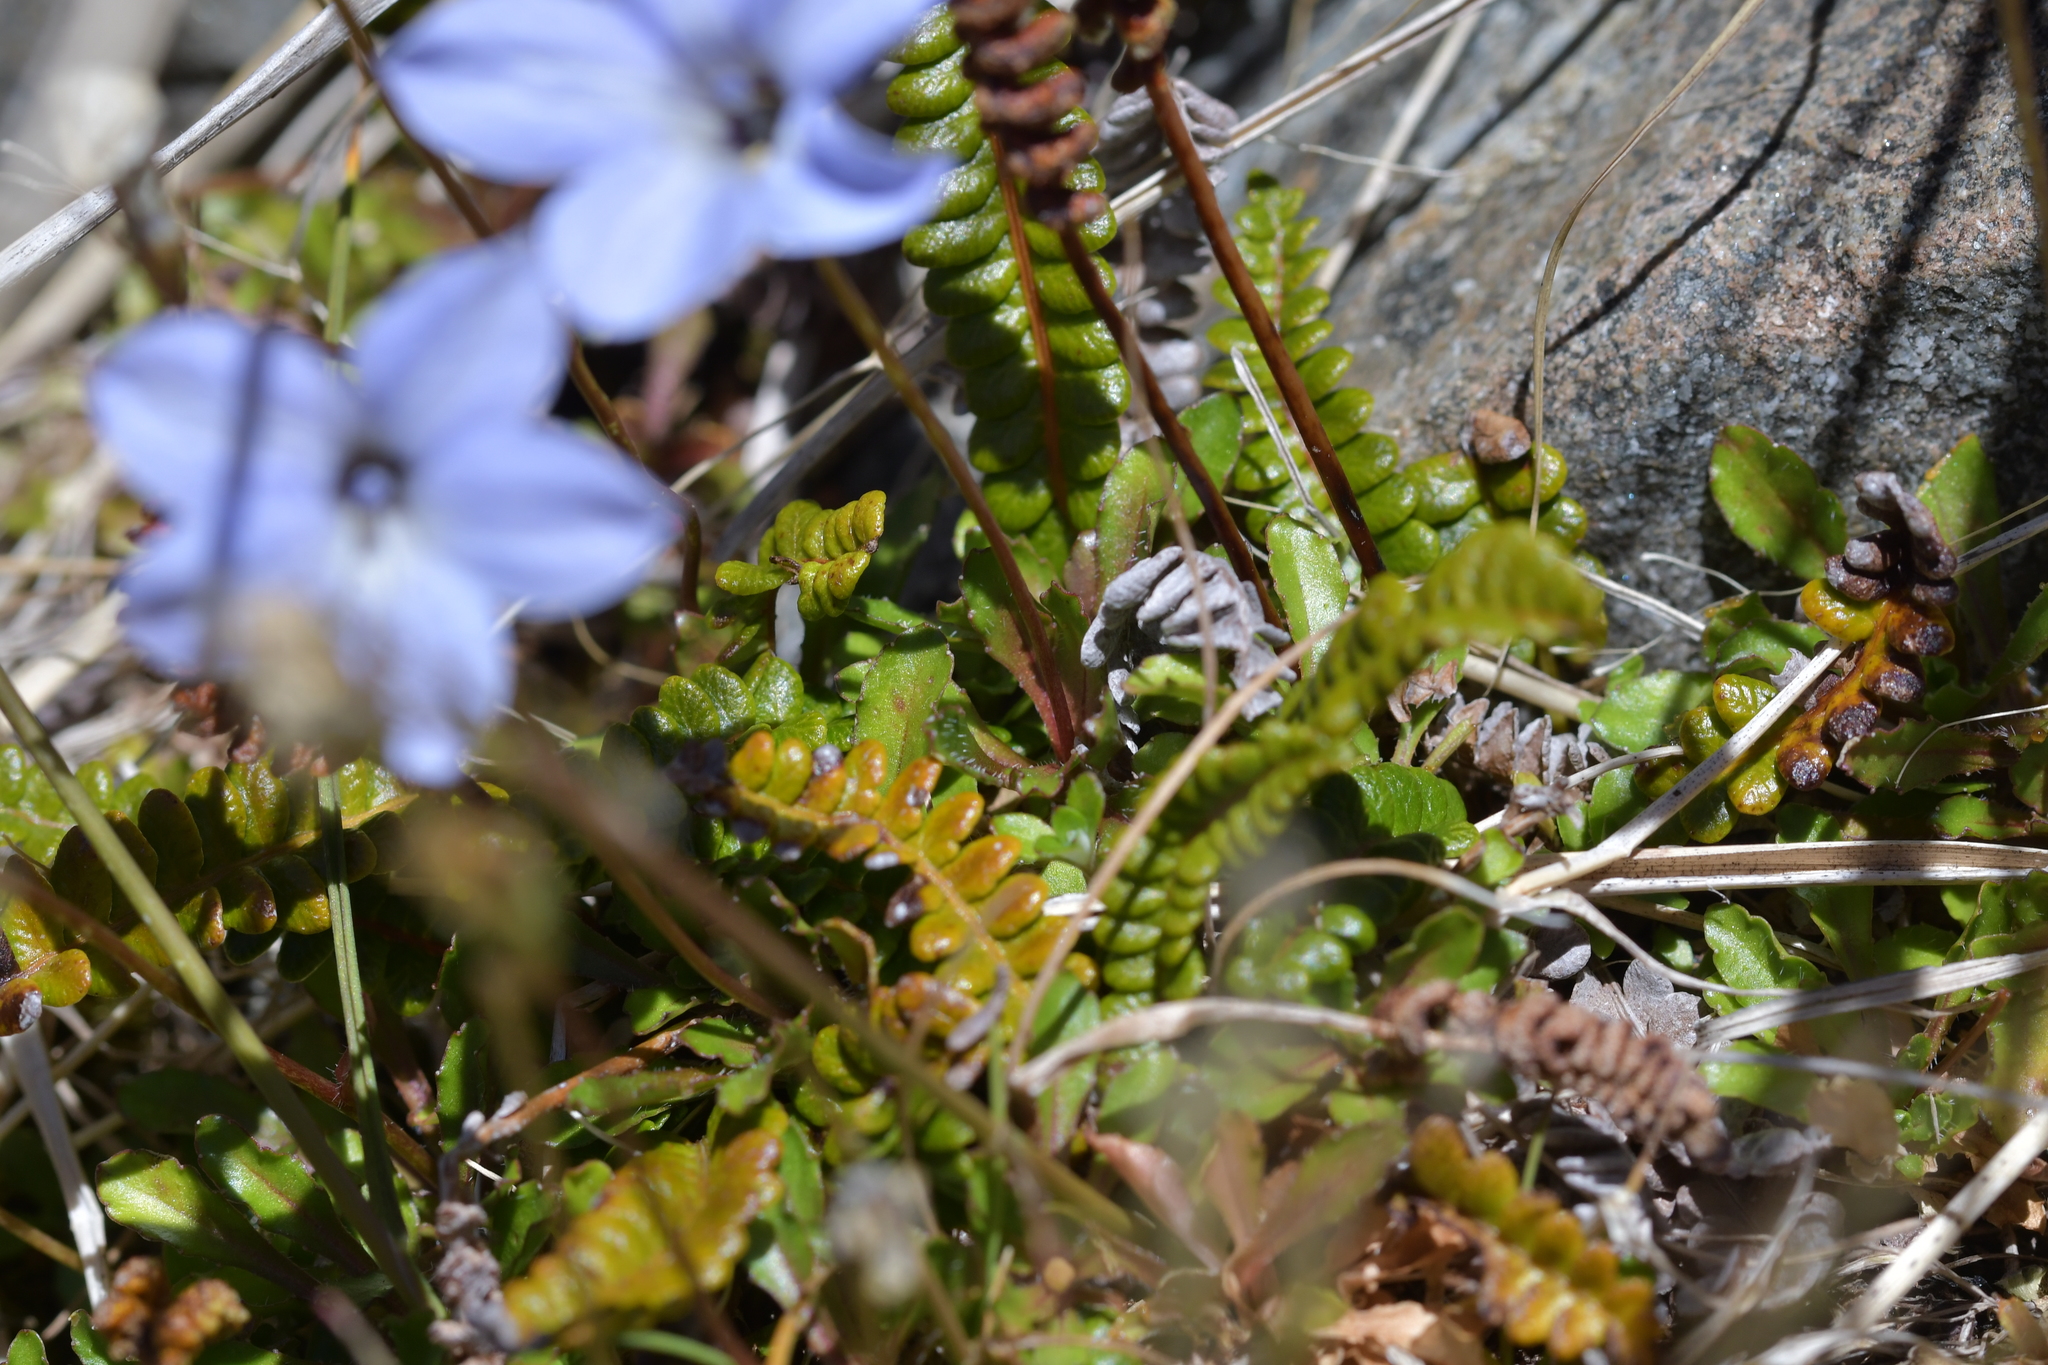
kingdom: Plantae
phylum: Tracheophyta
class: Magnoliopsida
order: Asterales
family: Campanulaceae
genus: Wahlenbergia
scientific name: Wahlenbergia albomarginata
